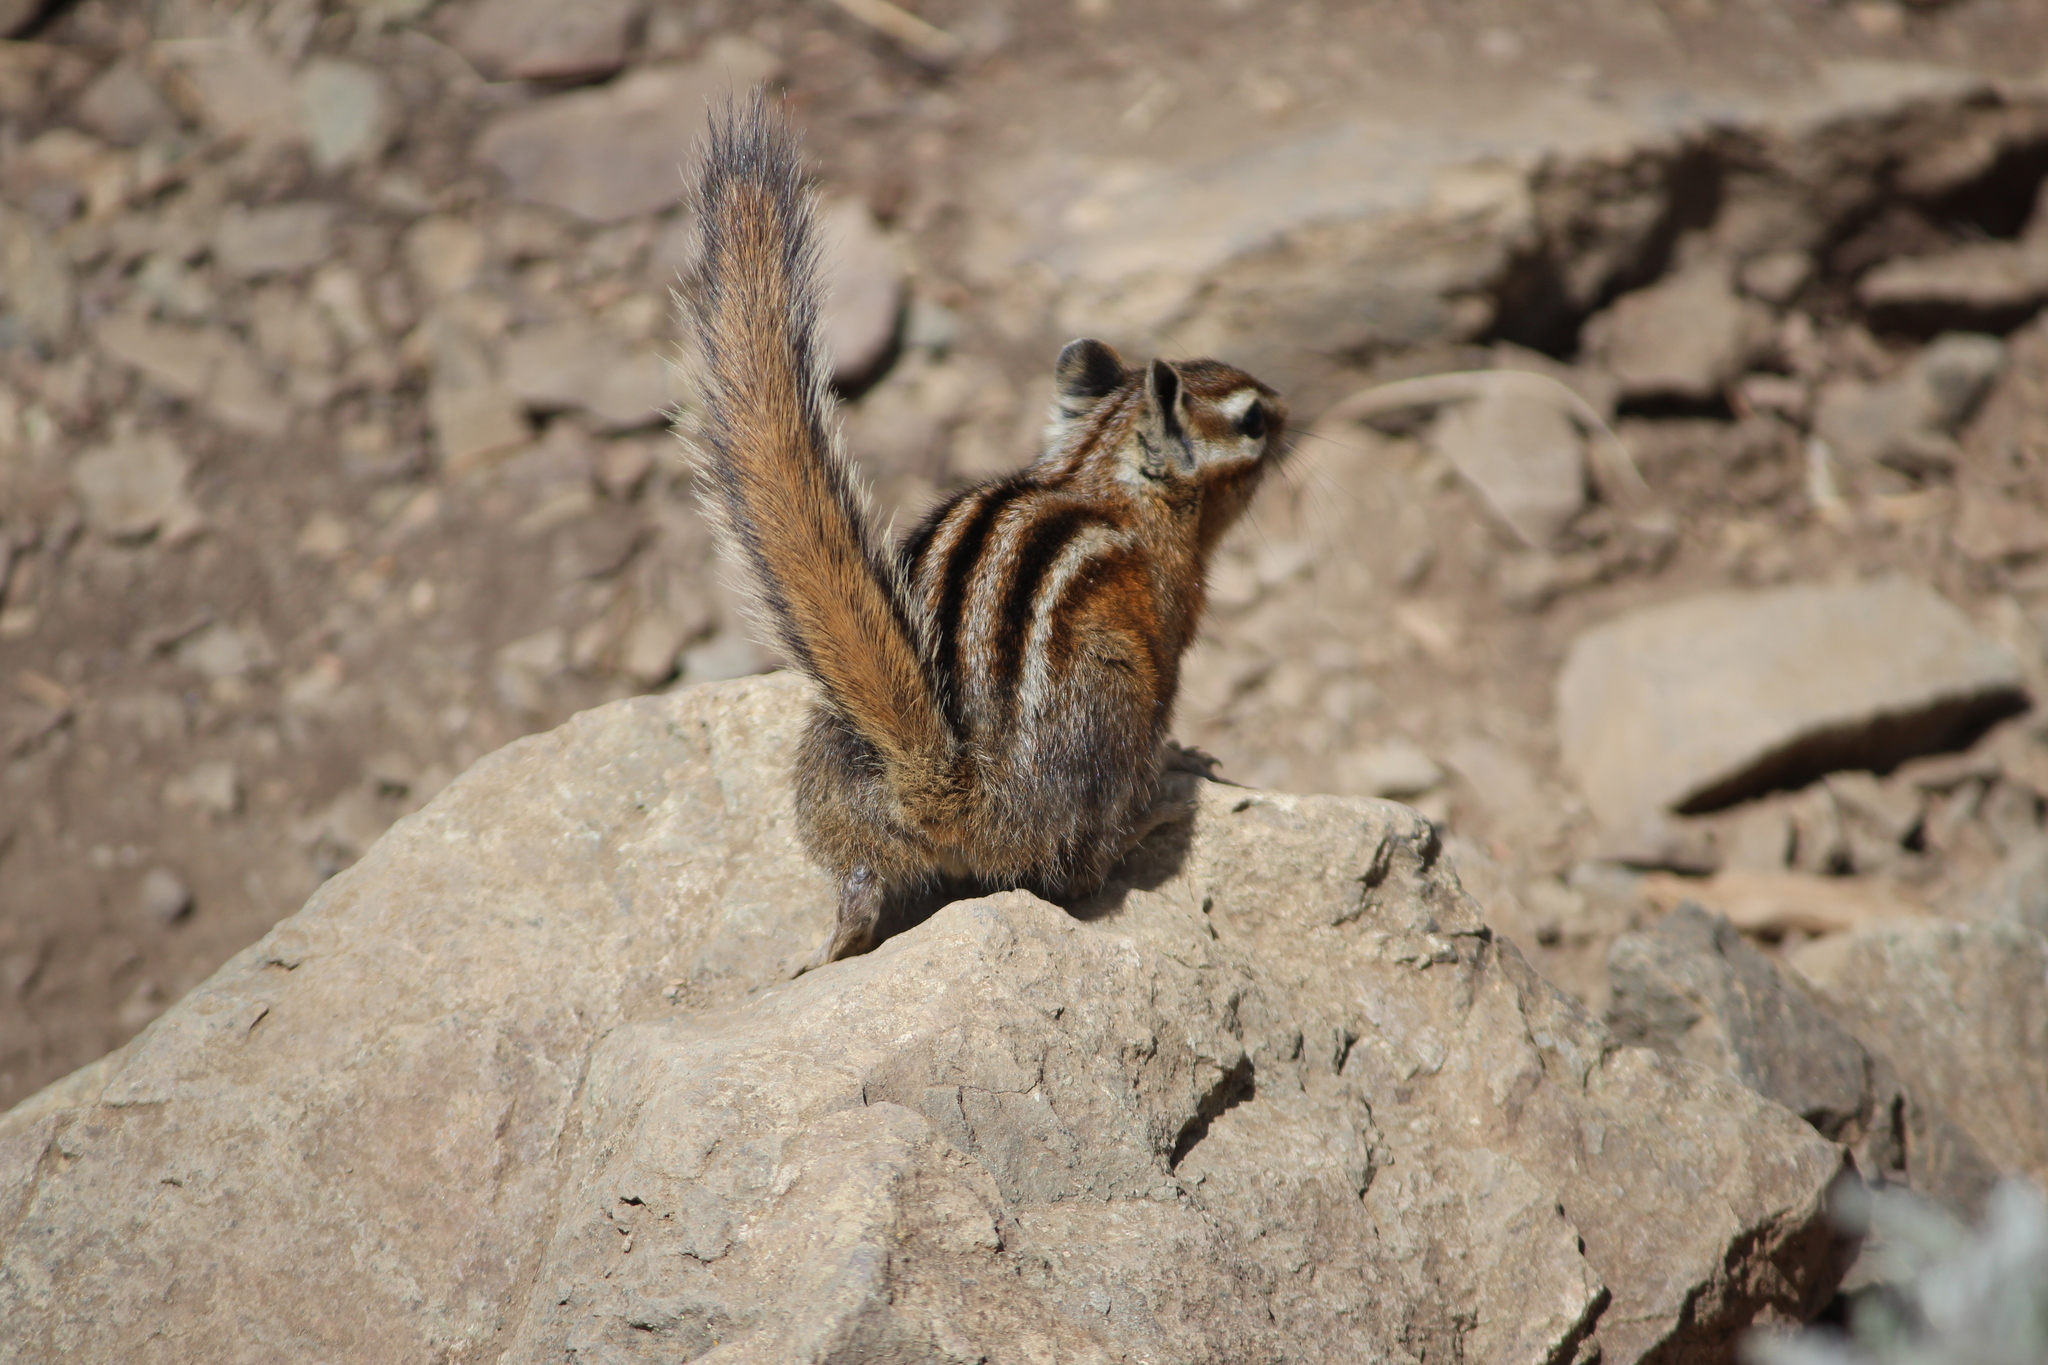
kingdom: Animalia
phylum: Chordata
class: Mammalia
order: Rodentia
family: Sciuridae
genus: Tamias
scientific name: Tamias amoenus
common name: Yellow-pine chipmunk
